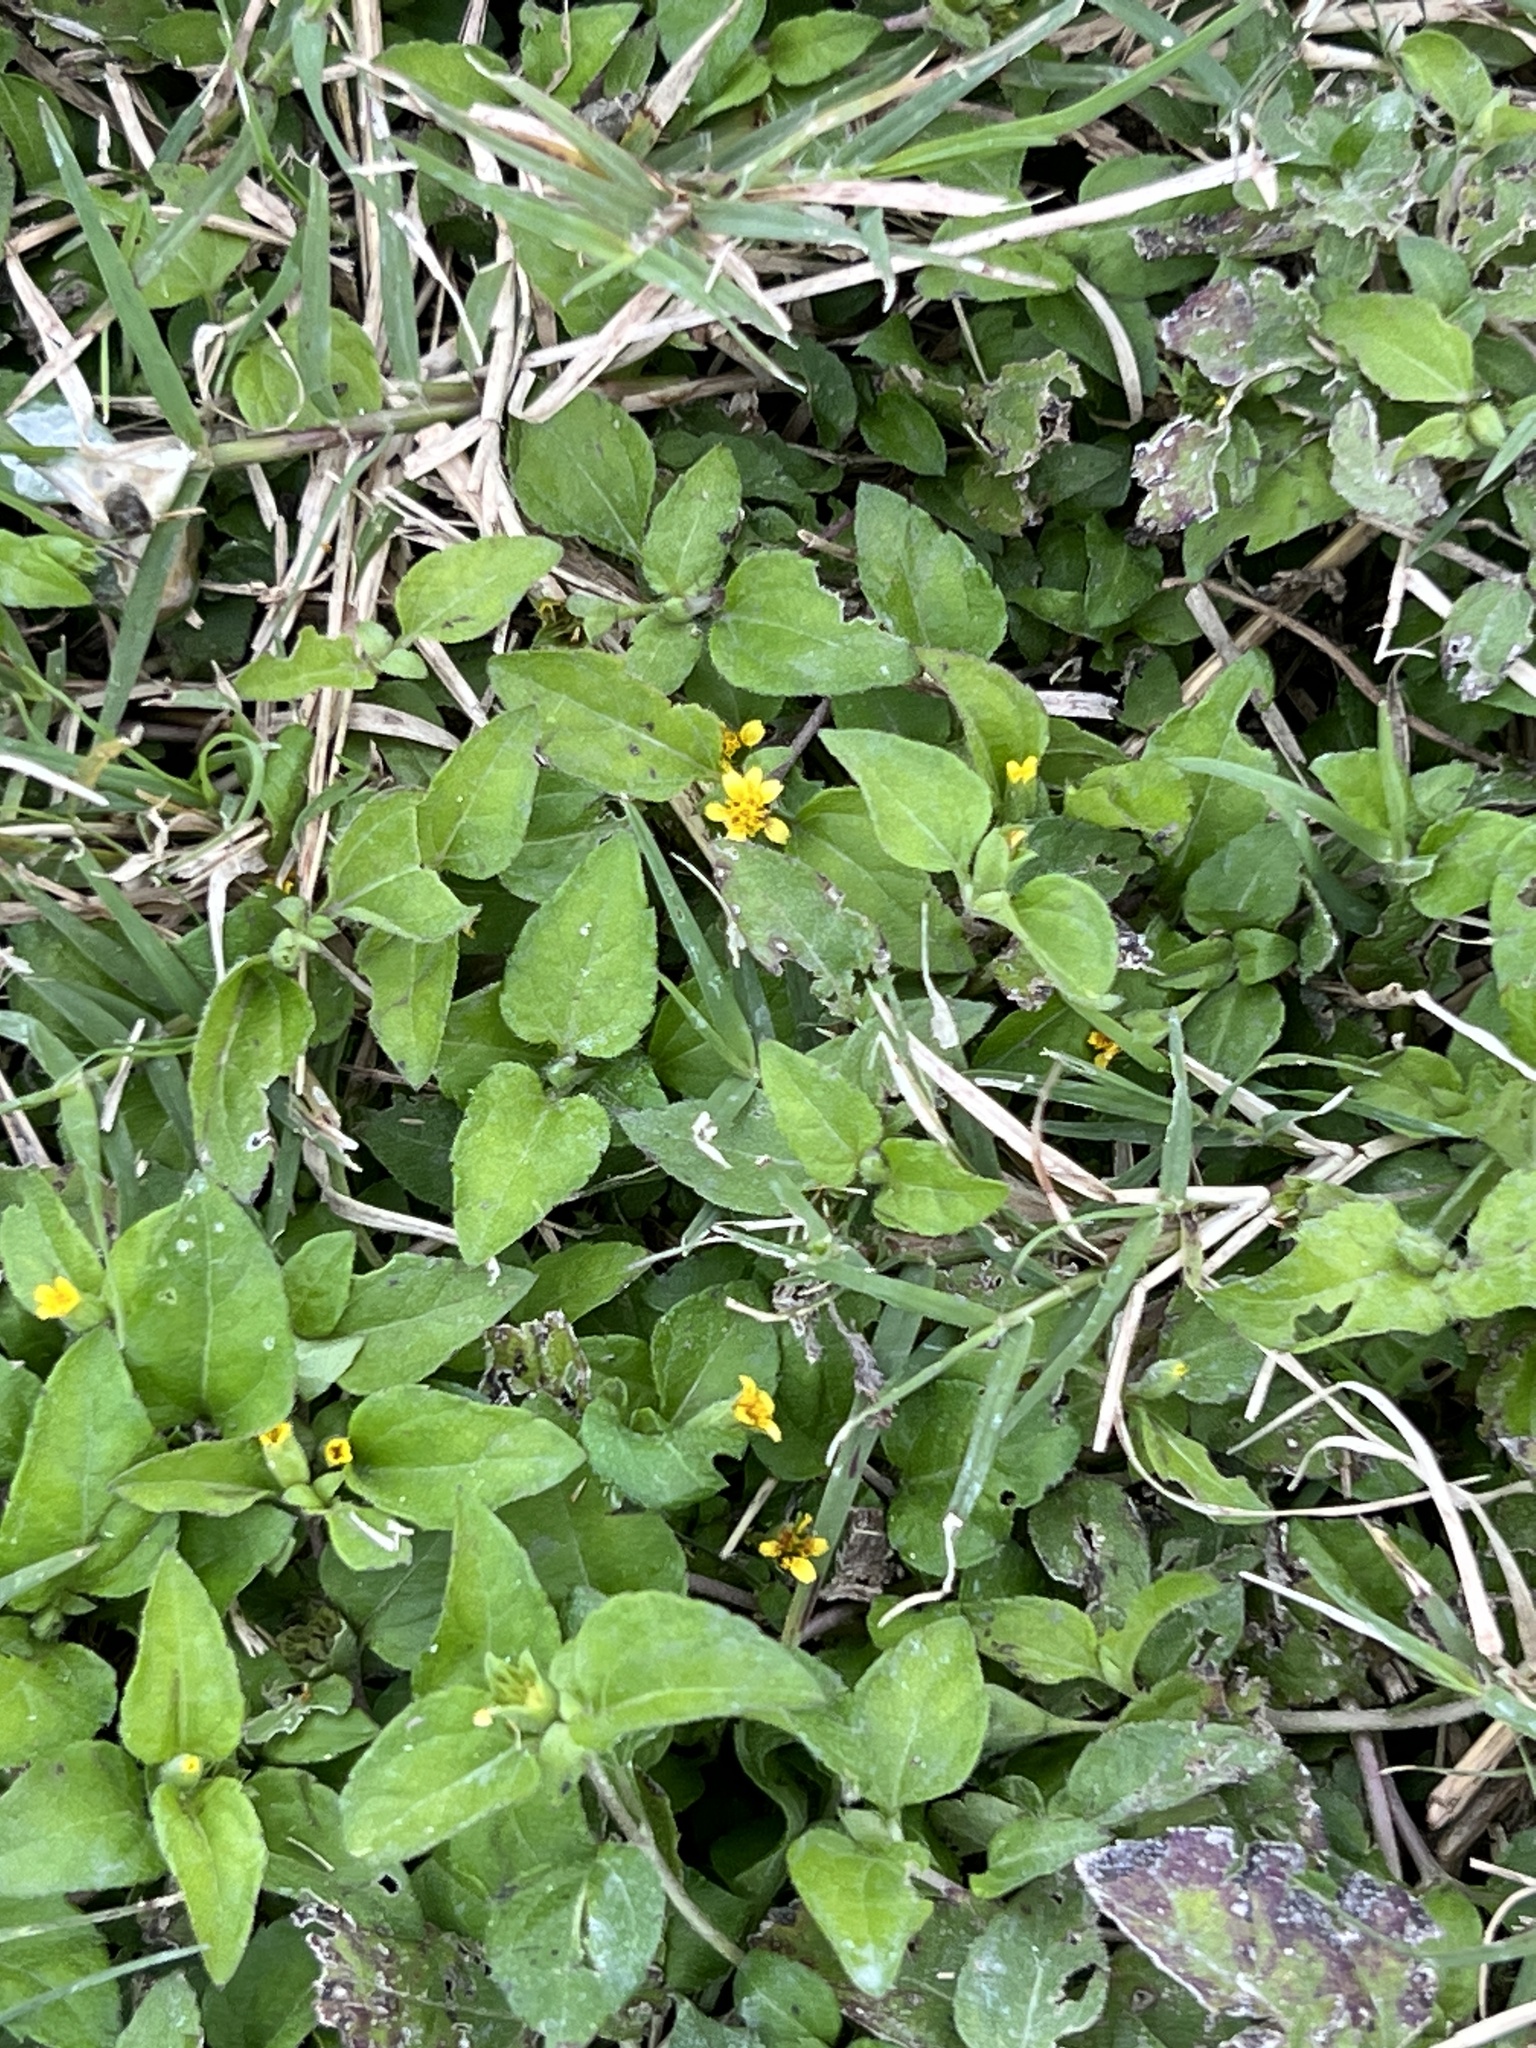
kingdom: Plantae
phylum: Tracheophyta
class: Magnoliopsida
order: Asterales
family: Asteraceae
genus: Calyptocarpus
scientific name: Calyptocarpus vialis
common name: Straggler daisy
